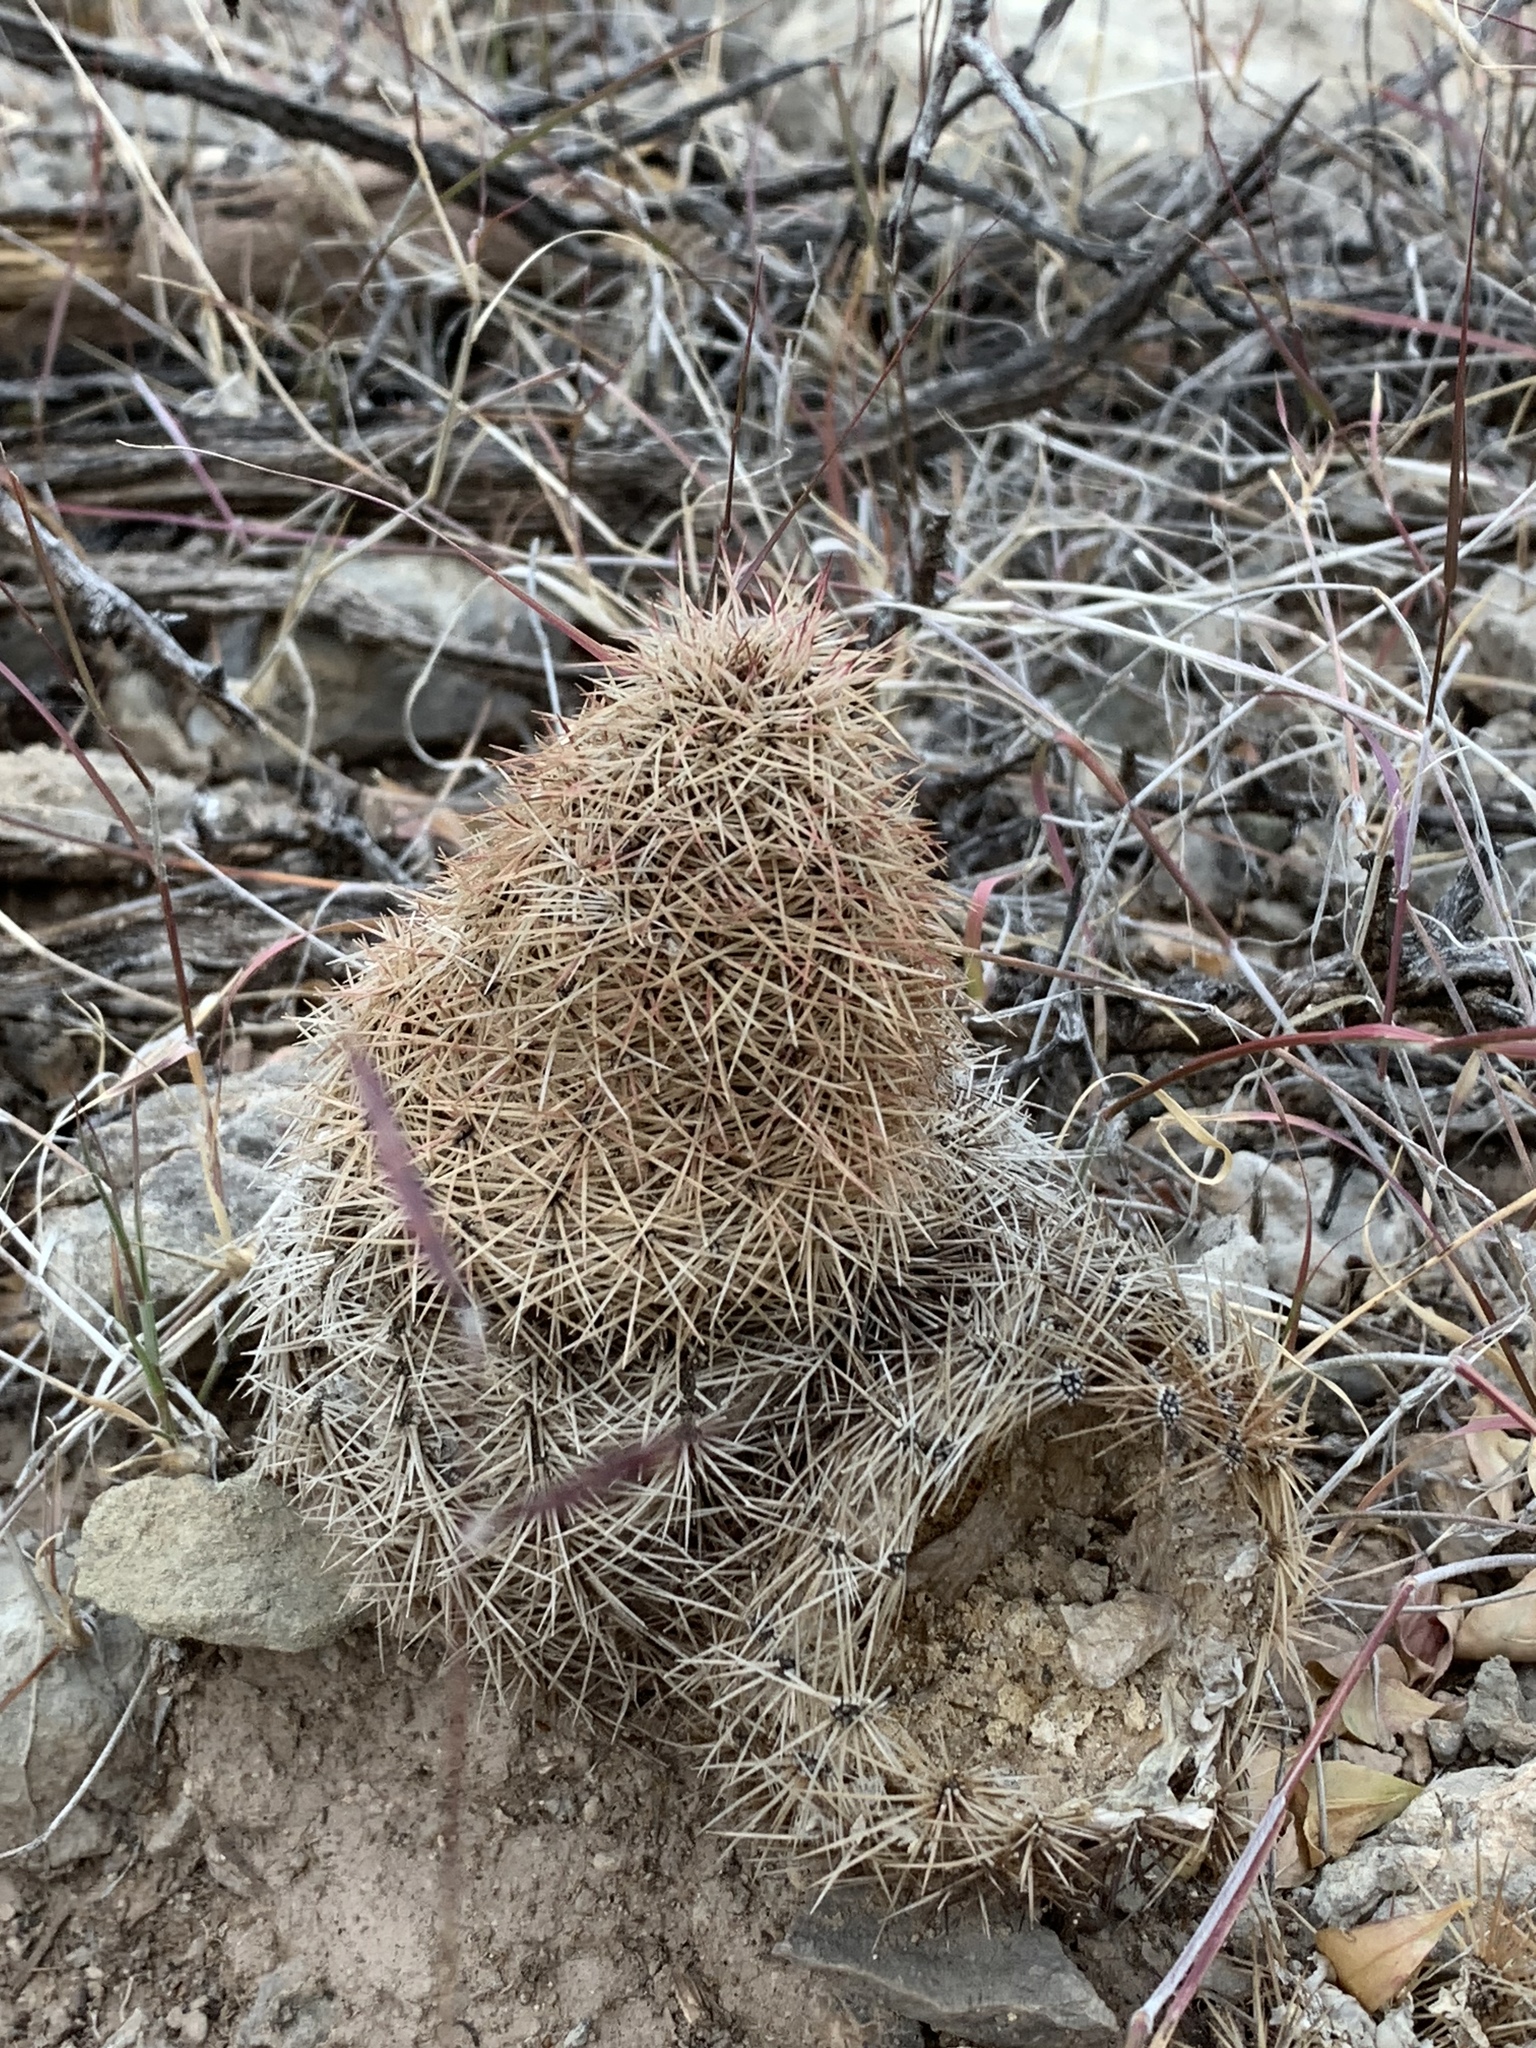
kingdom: Plantae
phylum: Tracheophyta
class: Magnoliopsida
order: Caryophyllales
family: Cactaceae
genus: Echinocereus
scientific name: Echinocereus dasyacanthus
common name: Spiny hedgehog cactus
